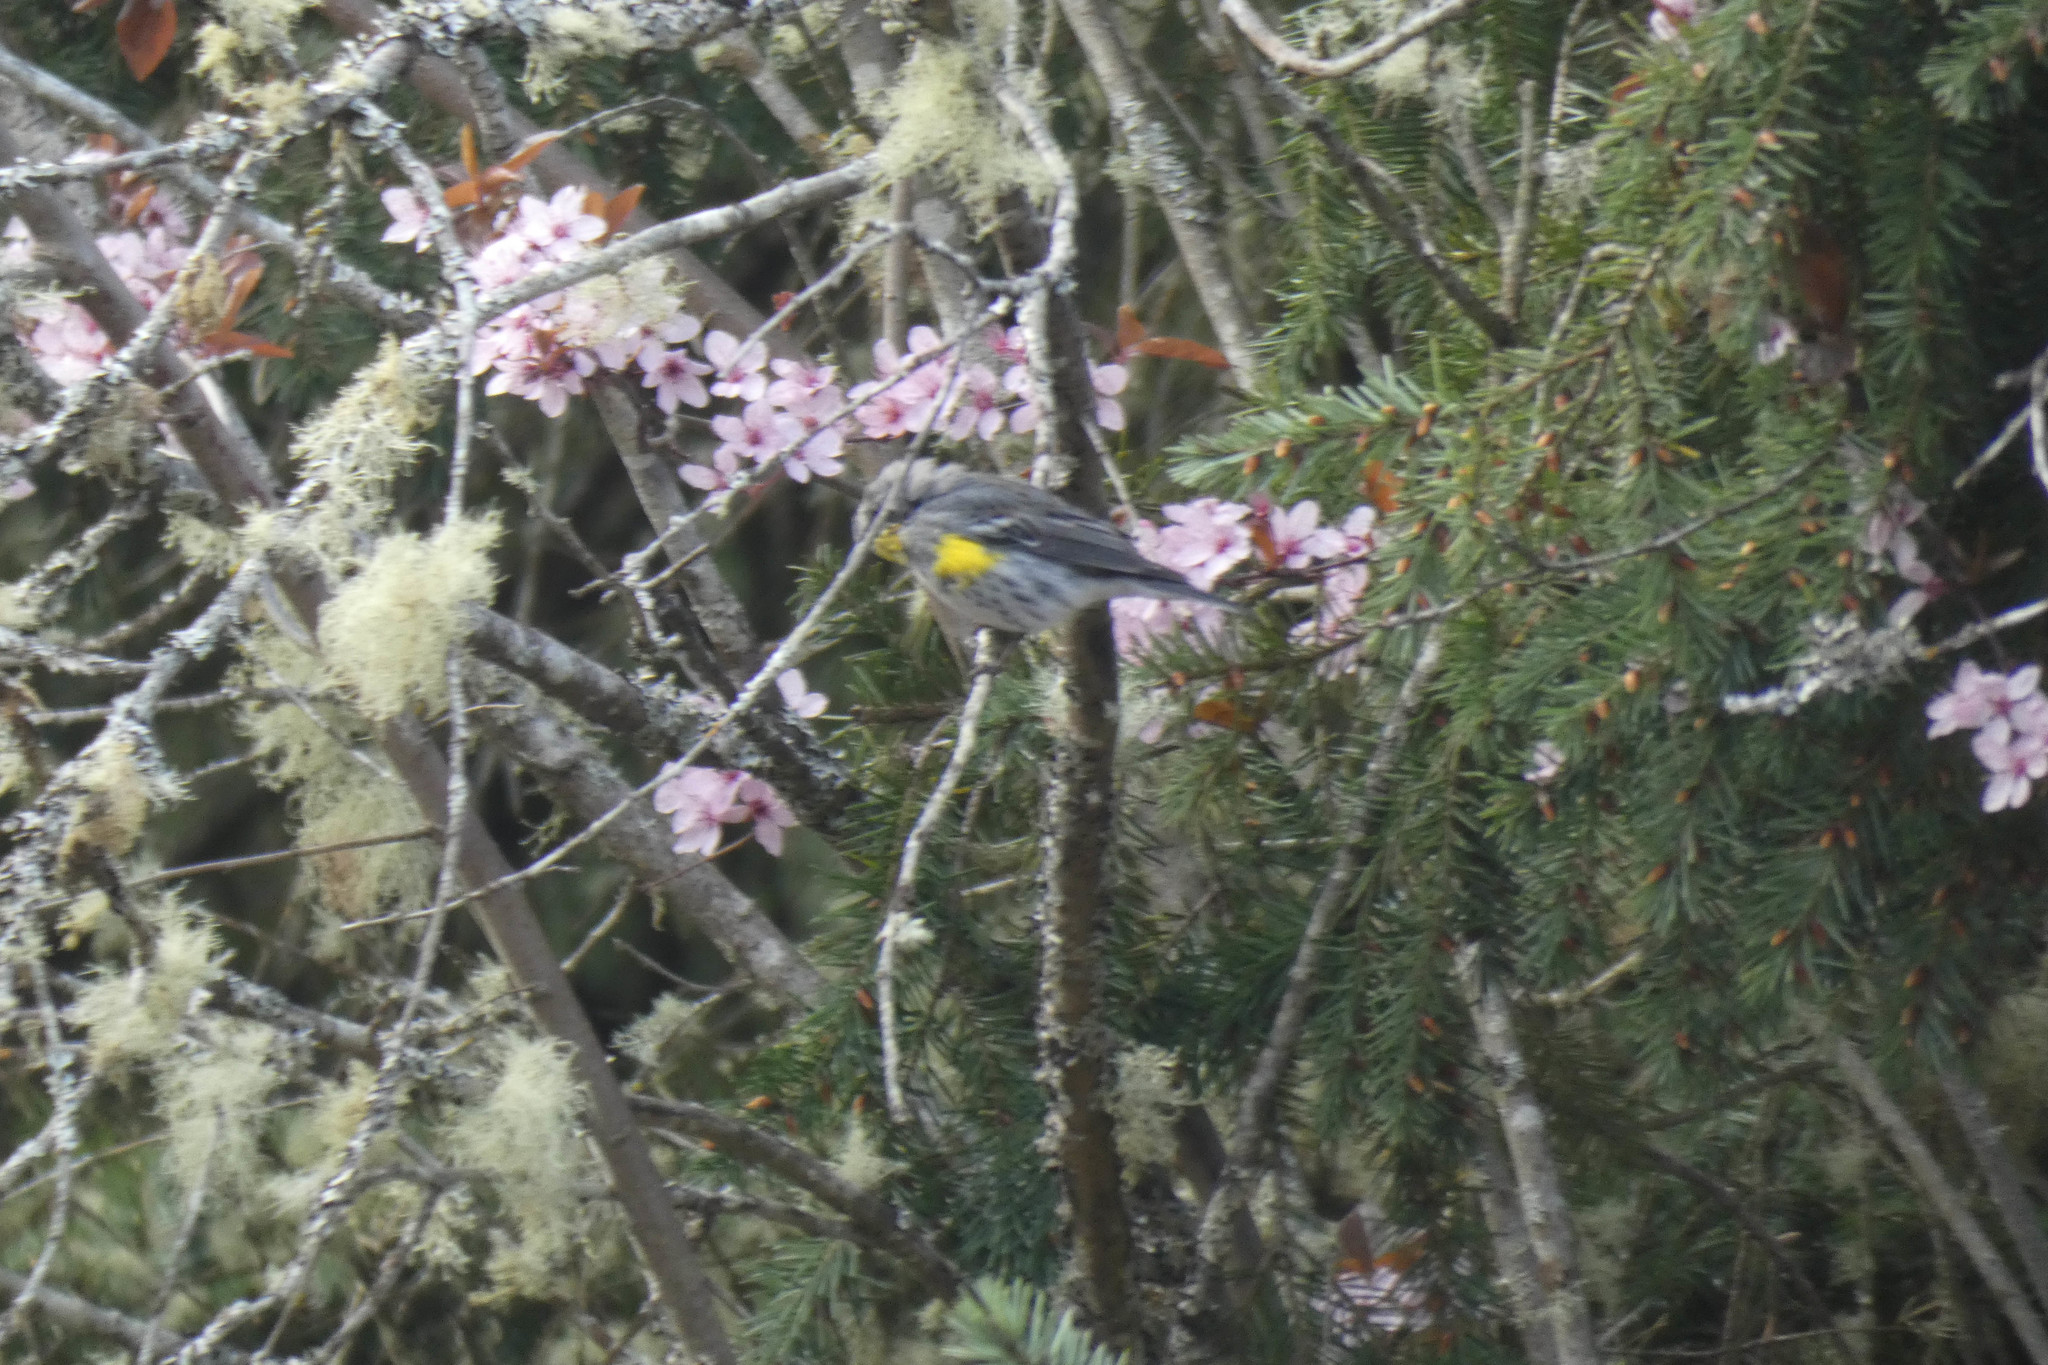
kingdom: Animalia
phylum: Chordata
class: Aves
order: Passeriformes
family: Parulidae
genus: Setophaga
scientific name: Setophaga coronata
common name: Myrtle warbler
